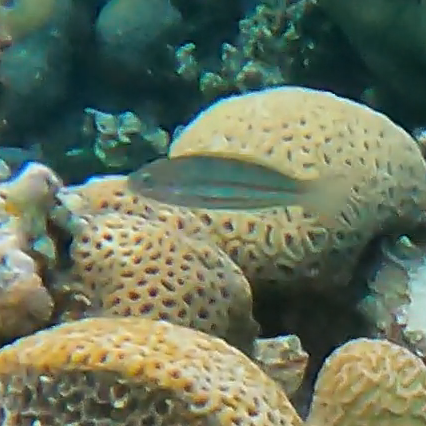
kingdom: Animalia
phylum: Chordata
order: Perciformes
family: Labridae
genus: Thalassoma
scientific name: Thalassoma rueppellii
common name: Klunzinger's wrasse
